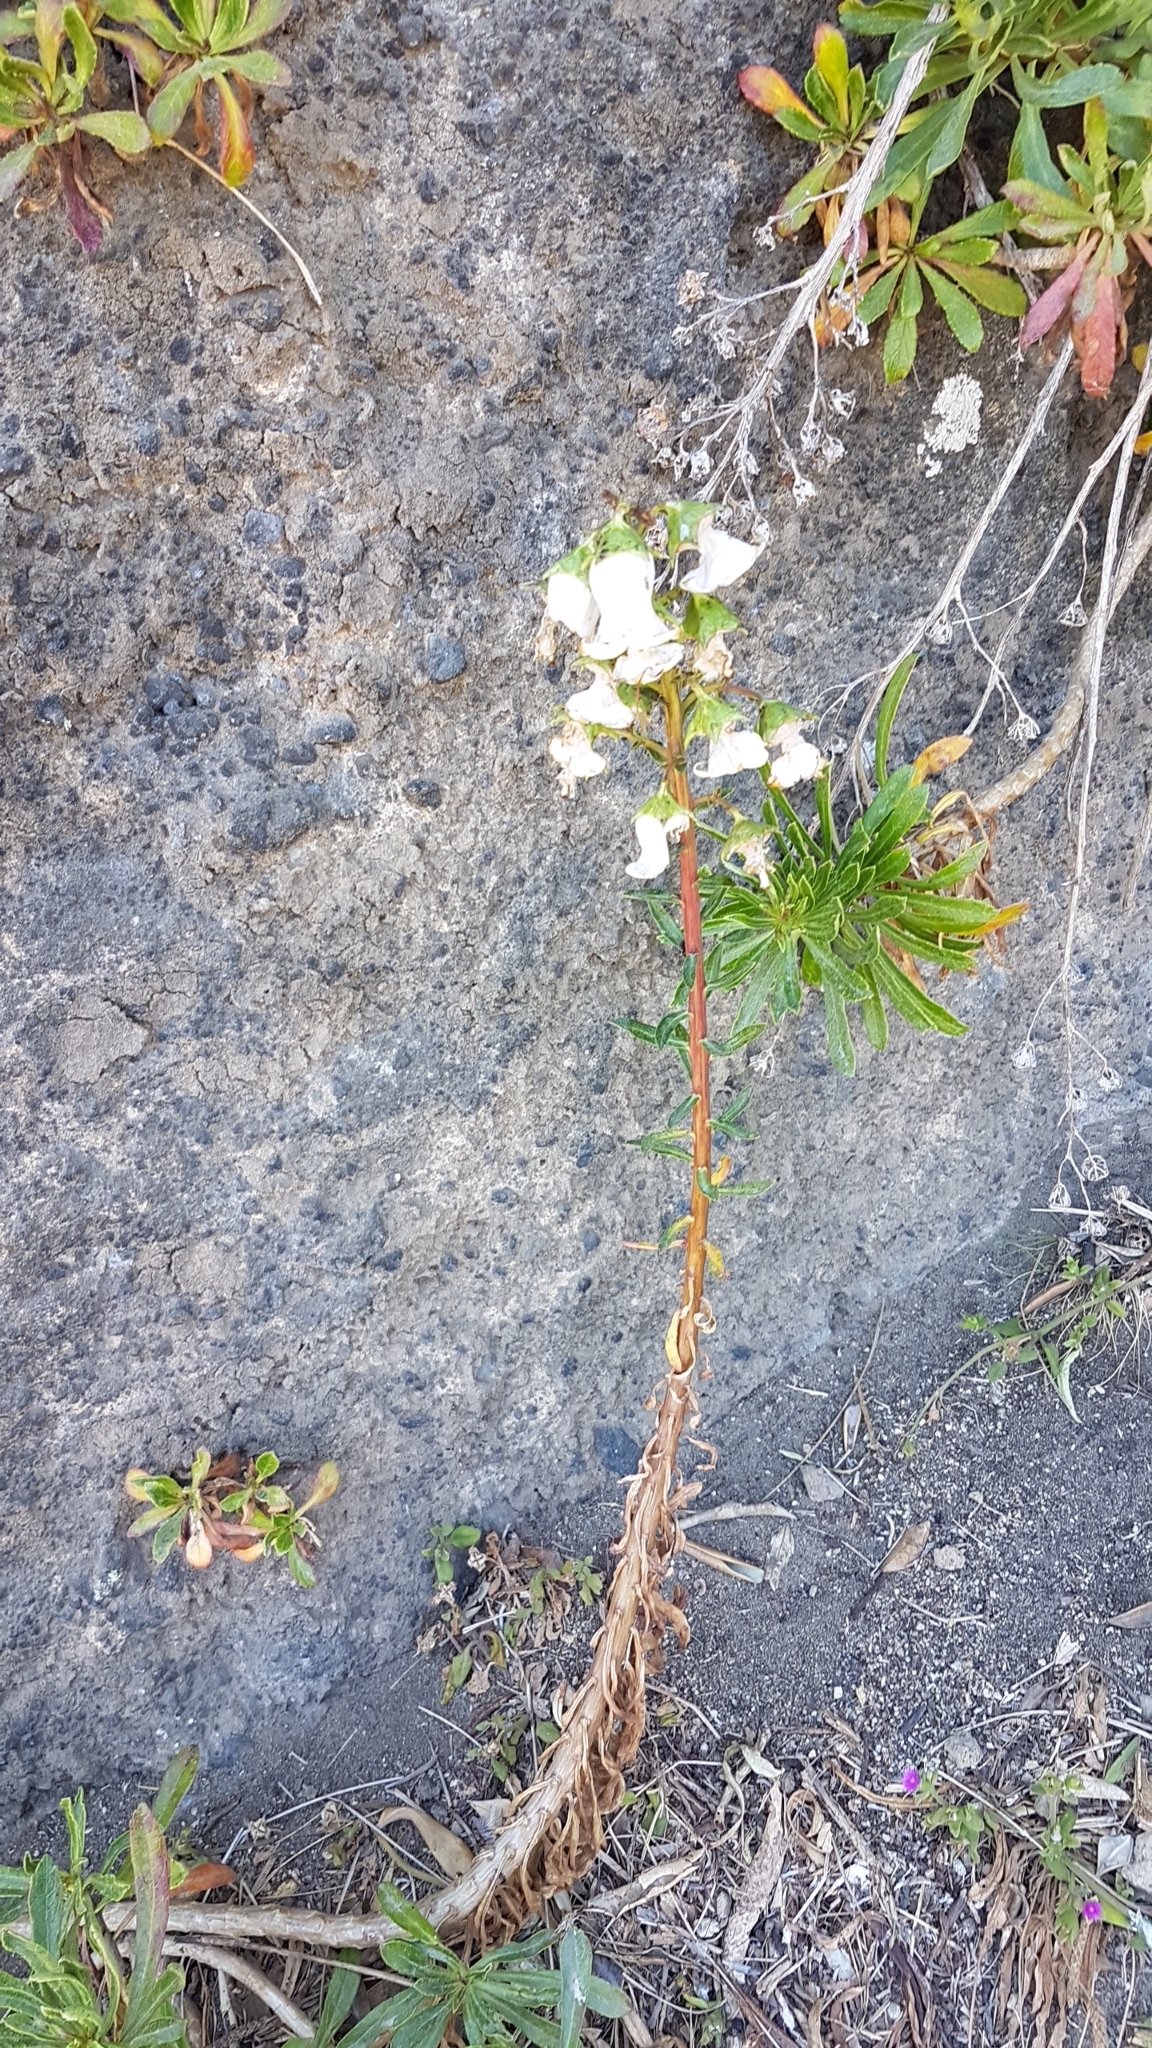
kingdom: Plantae
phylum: Tracheophyta
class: Magnoliopsida
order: Asterales
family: Campanulaceae
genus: Campanula
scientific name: Campanula vidalii
